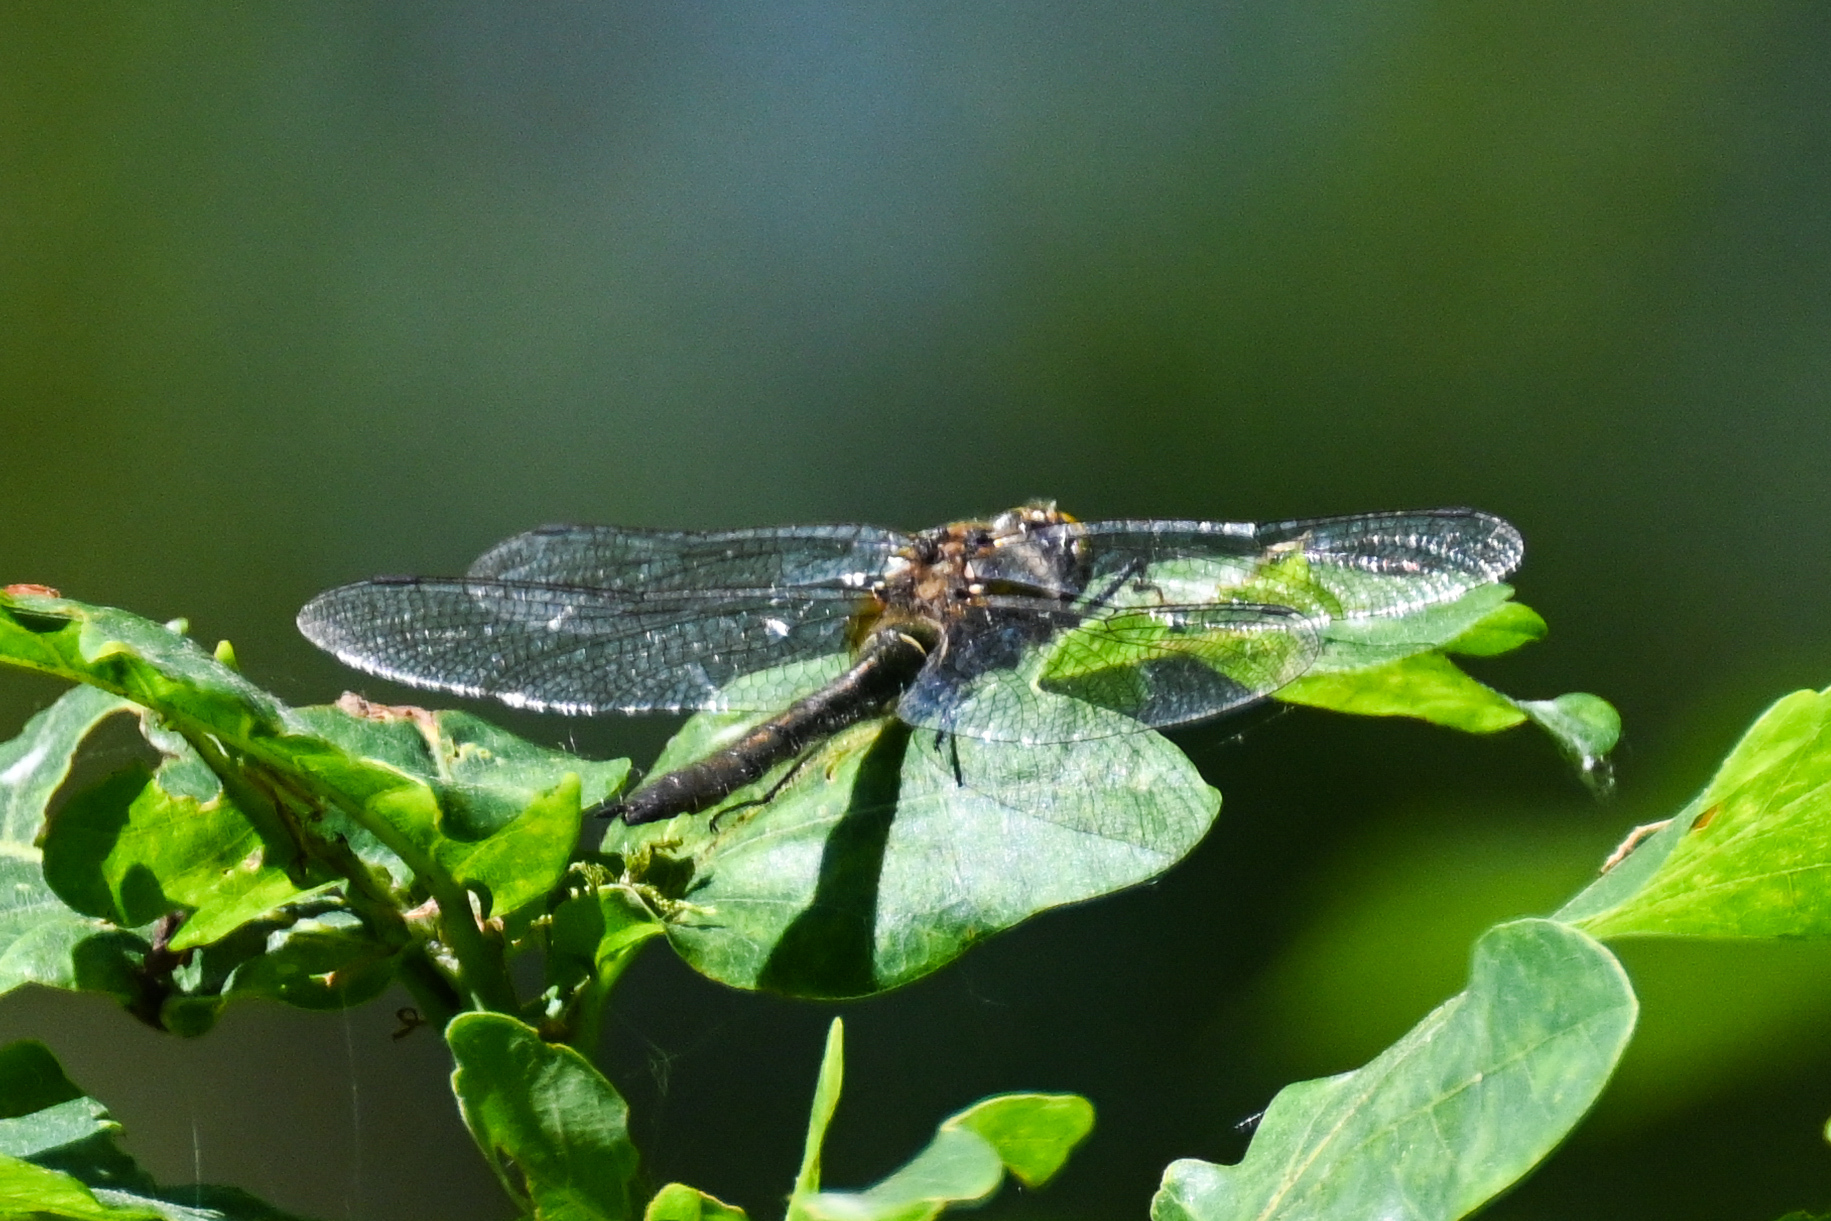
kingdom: Animalia
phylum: Arthropoda
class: Insecta
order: Odonata
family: Corduliidae
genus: Cordulia
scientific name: Cordulia aenea
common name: Downy emerald
